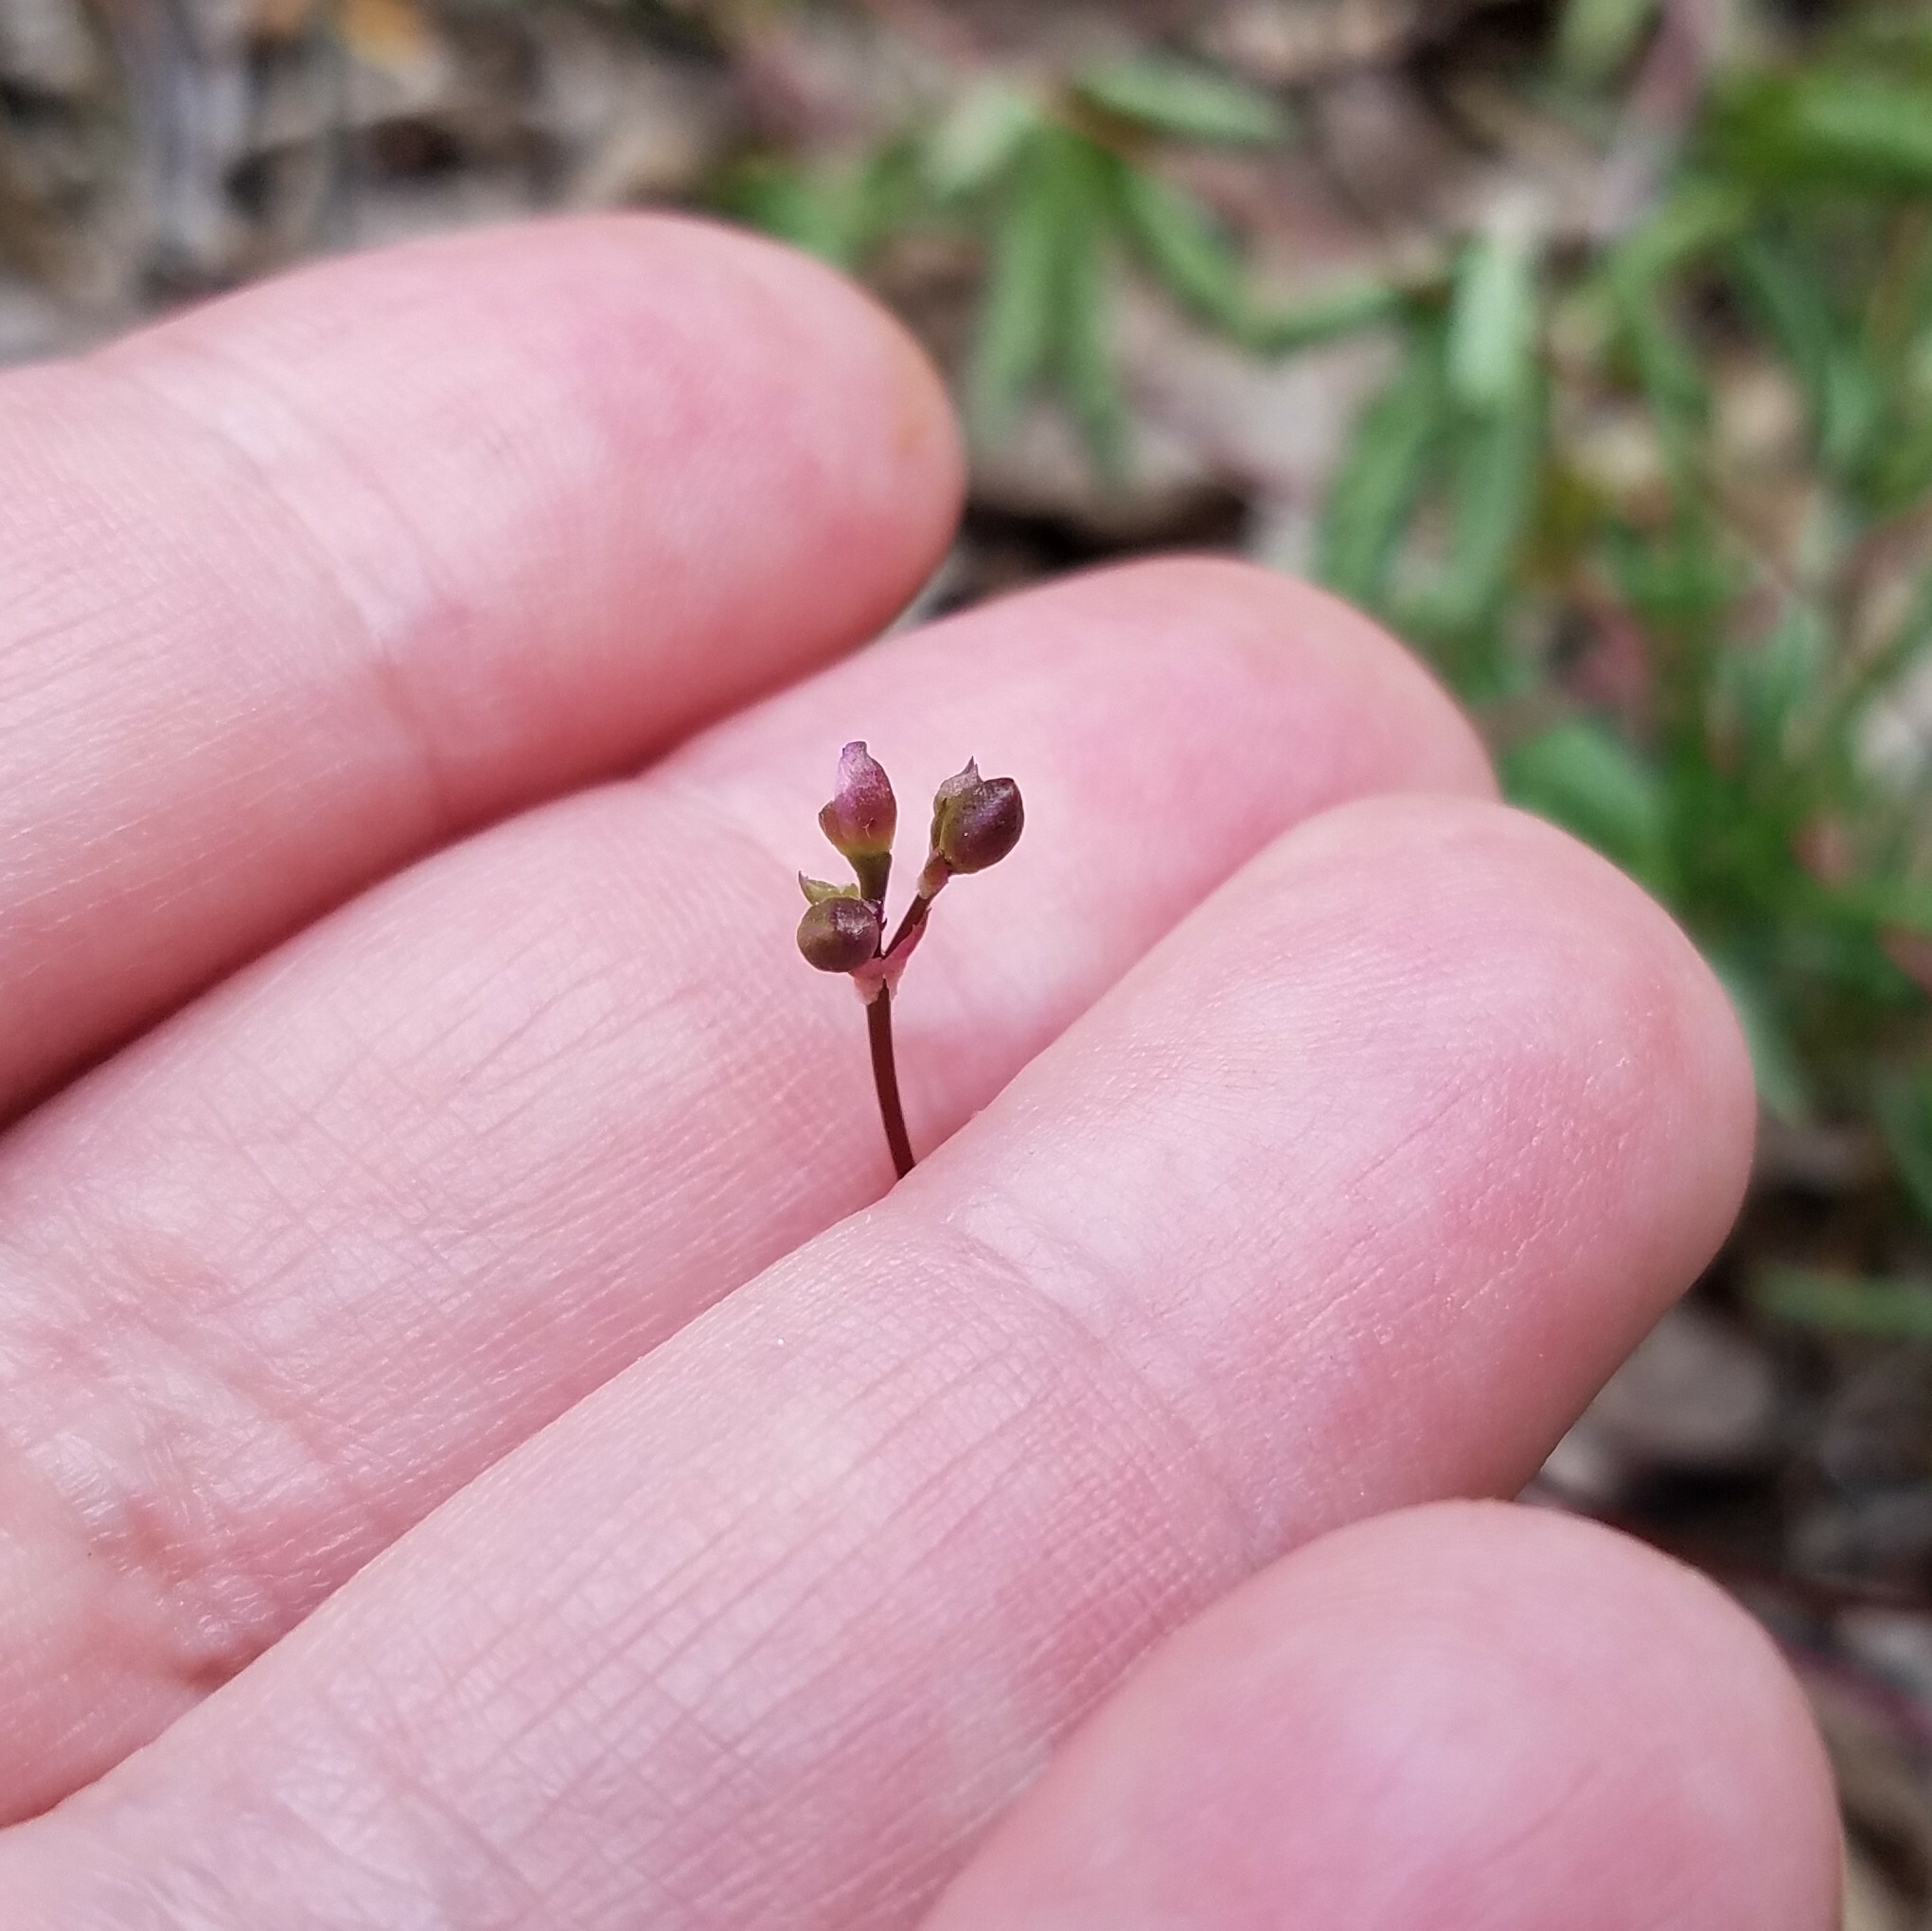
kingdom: Plantae
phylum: Tracheophyta
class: Magnoliopsida
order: Caryophyllales
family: Montiaceae
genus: Phemeranthus
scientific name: Phemeranthus teretifolius
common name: Quill fameflower
